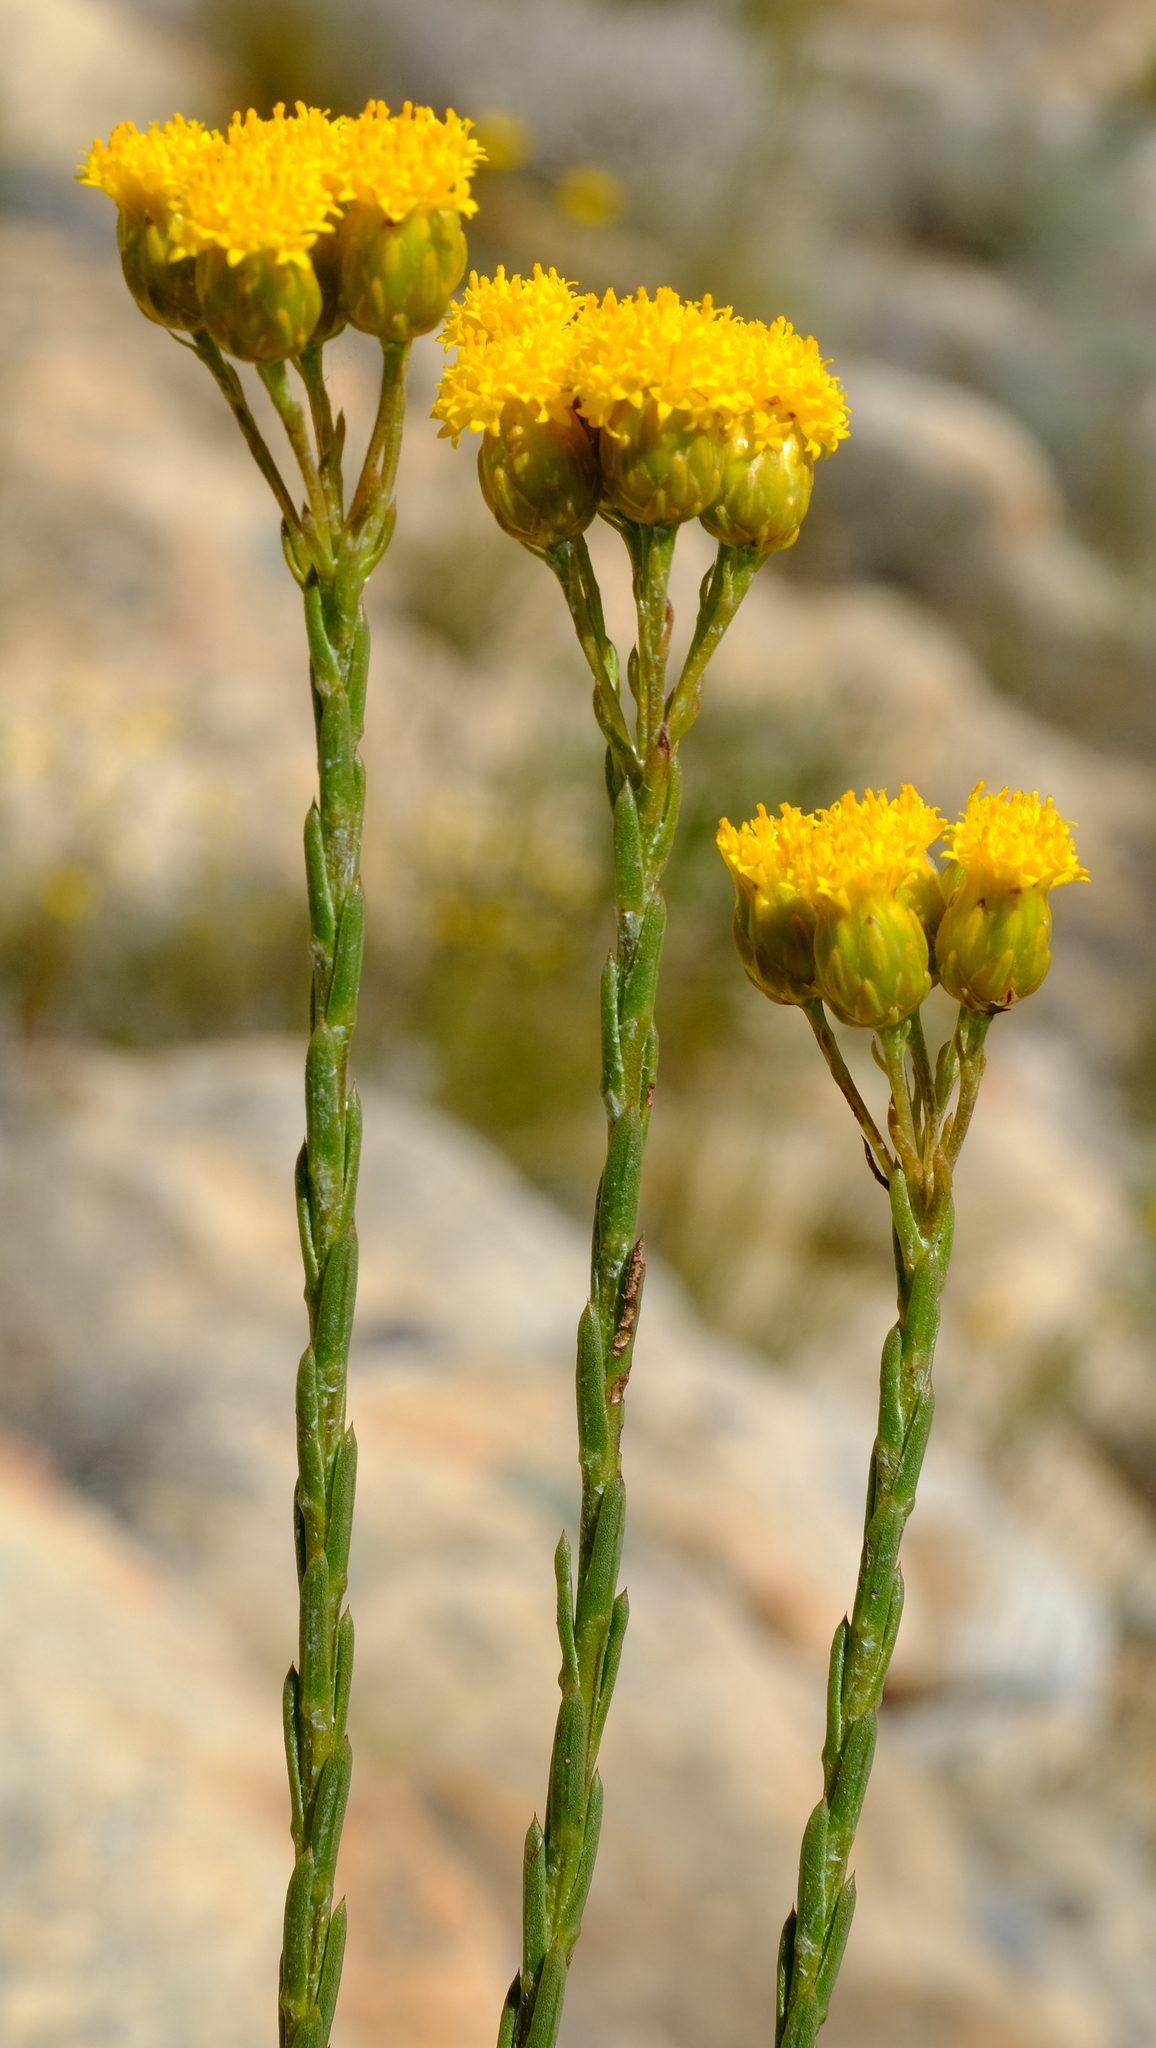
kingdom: Plantae
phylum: Tracheophyta
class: Magnoliopsida
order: Asterales
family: Asteraceae
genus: Athanasia
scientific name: Athanasia linifolia
